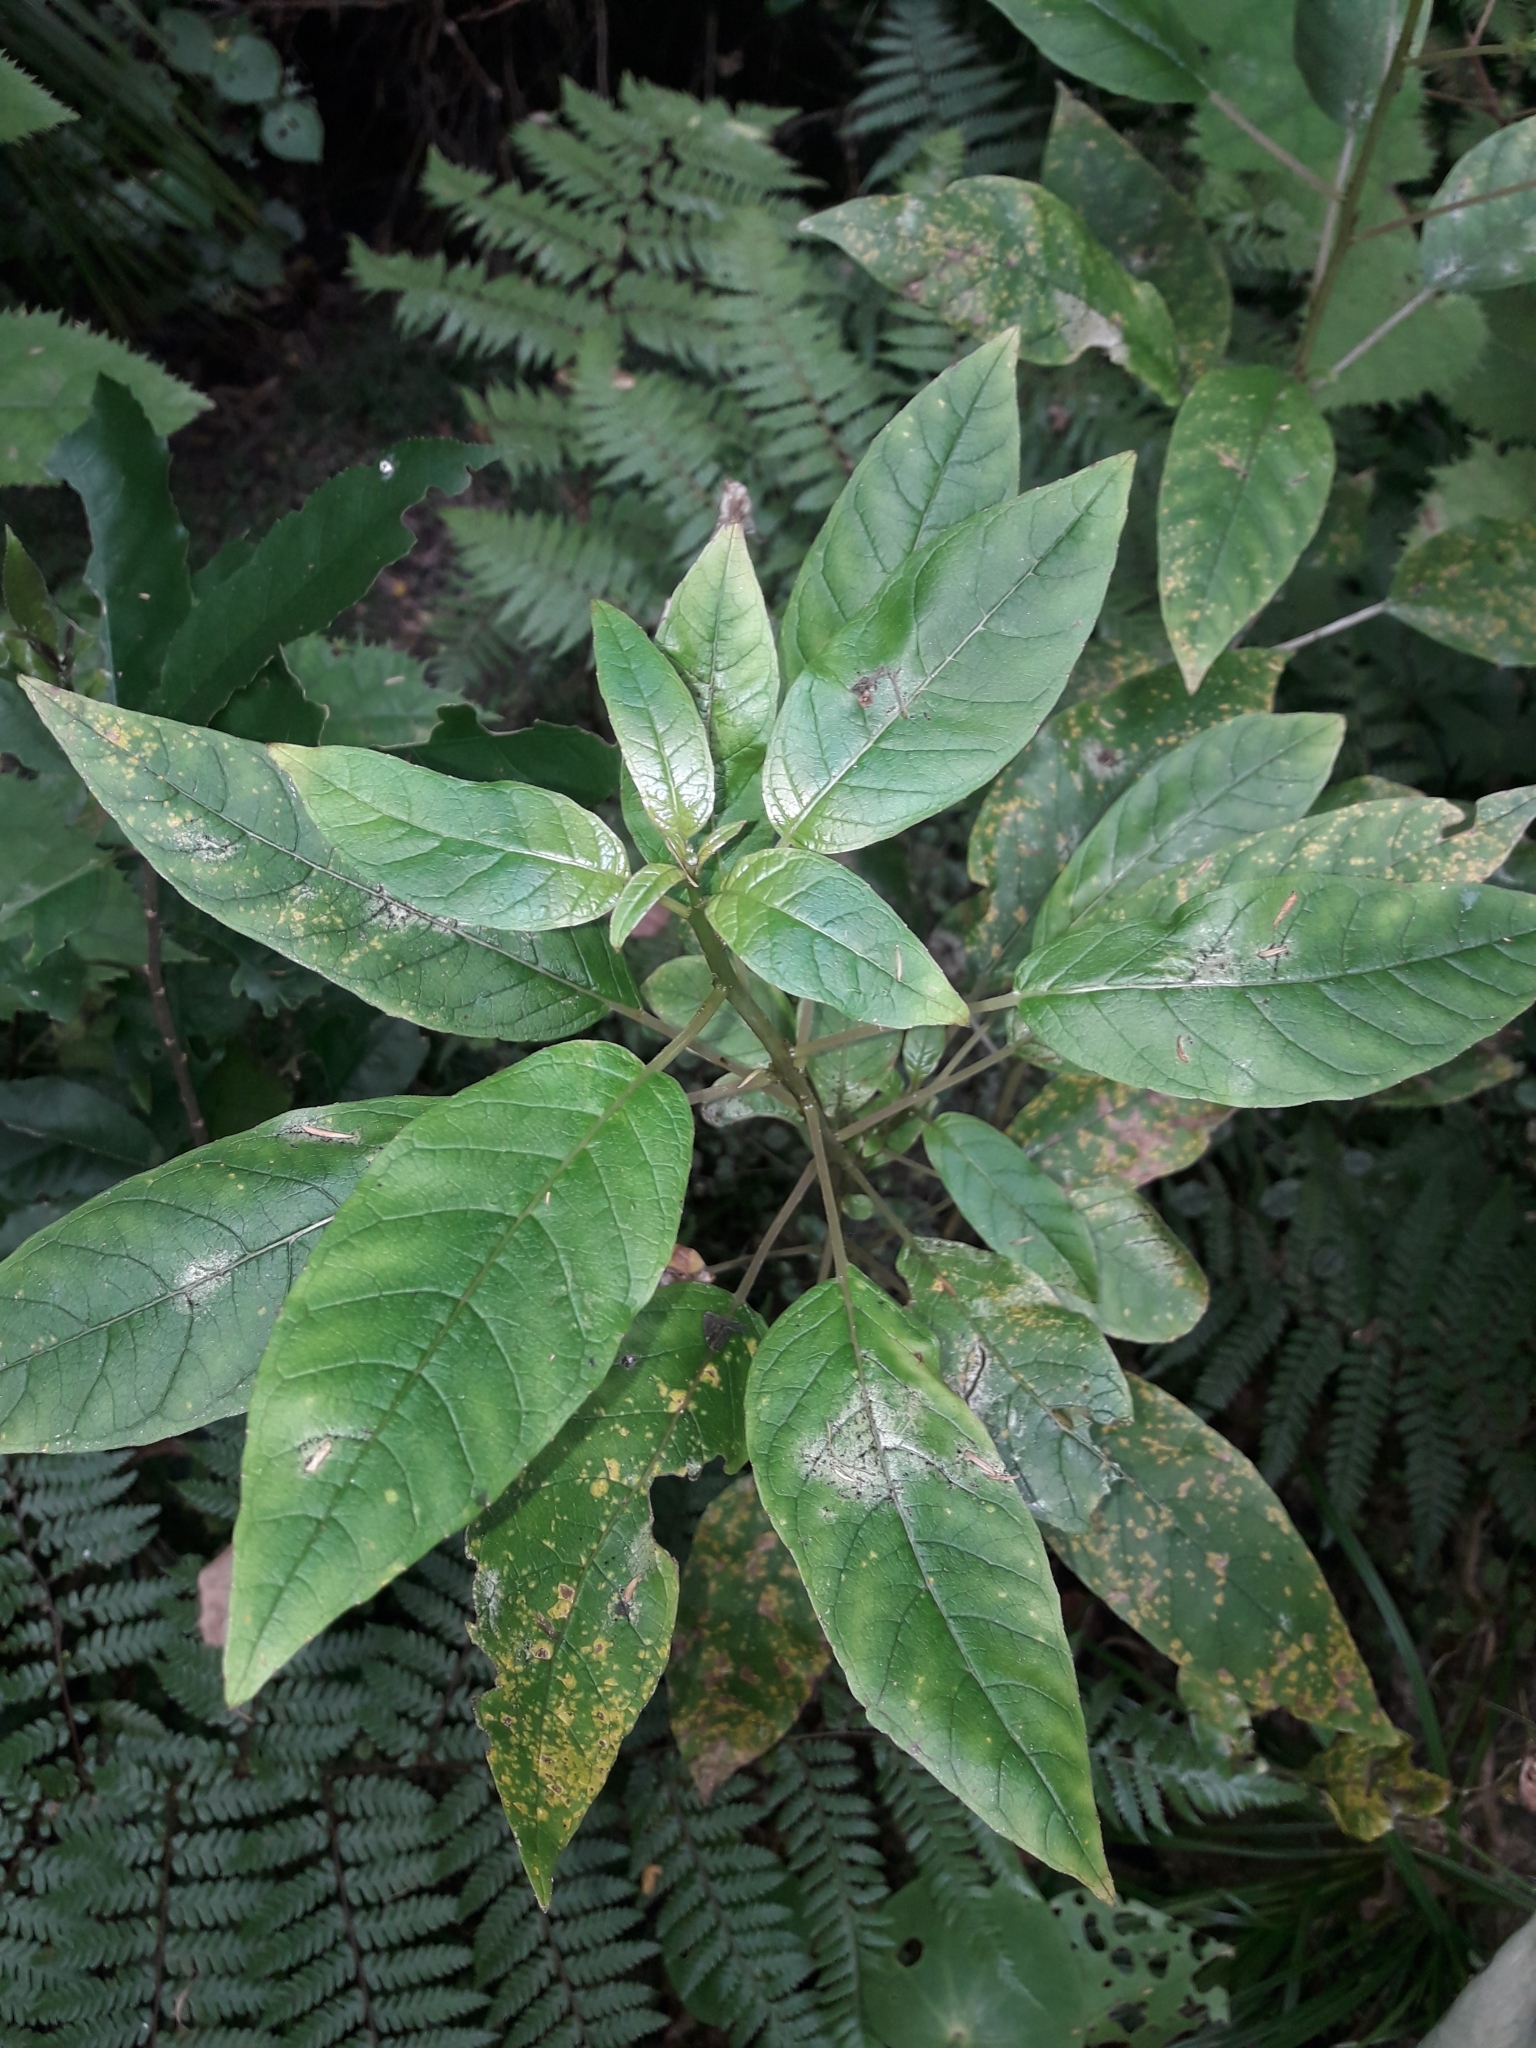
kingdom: Plantae
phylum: Tracheophyta
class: Magnoliopsida
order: Myrtales
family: Onagraceae
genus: Fuchsia
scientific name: Fuchsia excorticata
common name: Tree fuchsia
